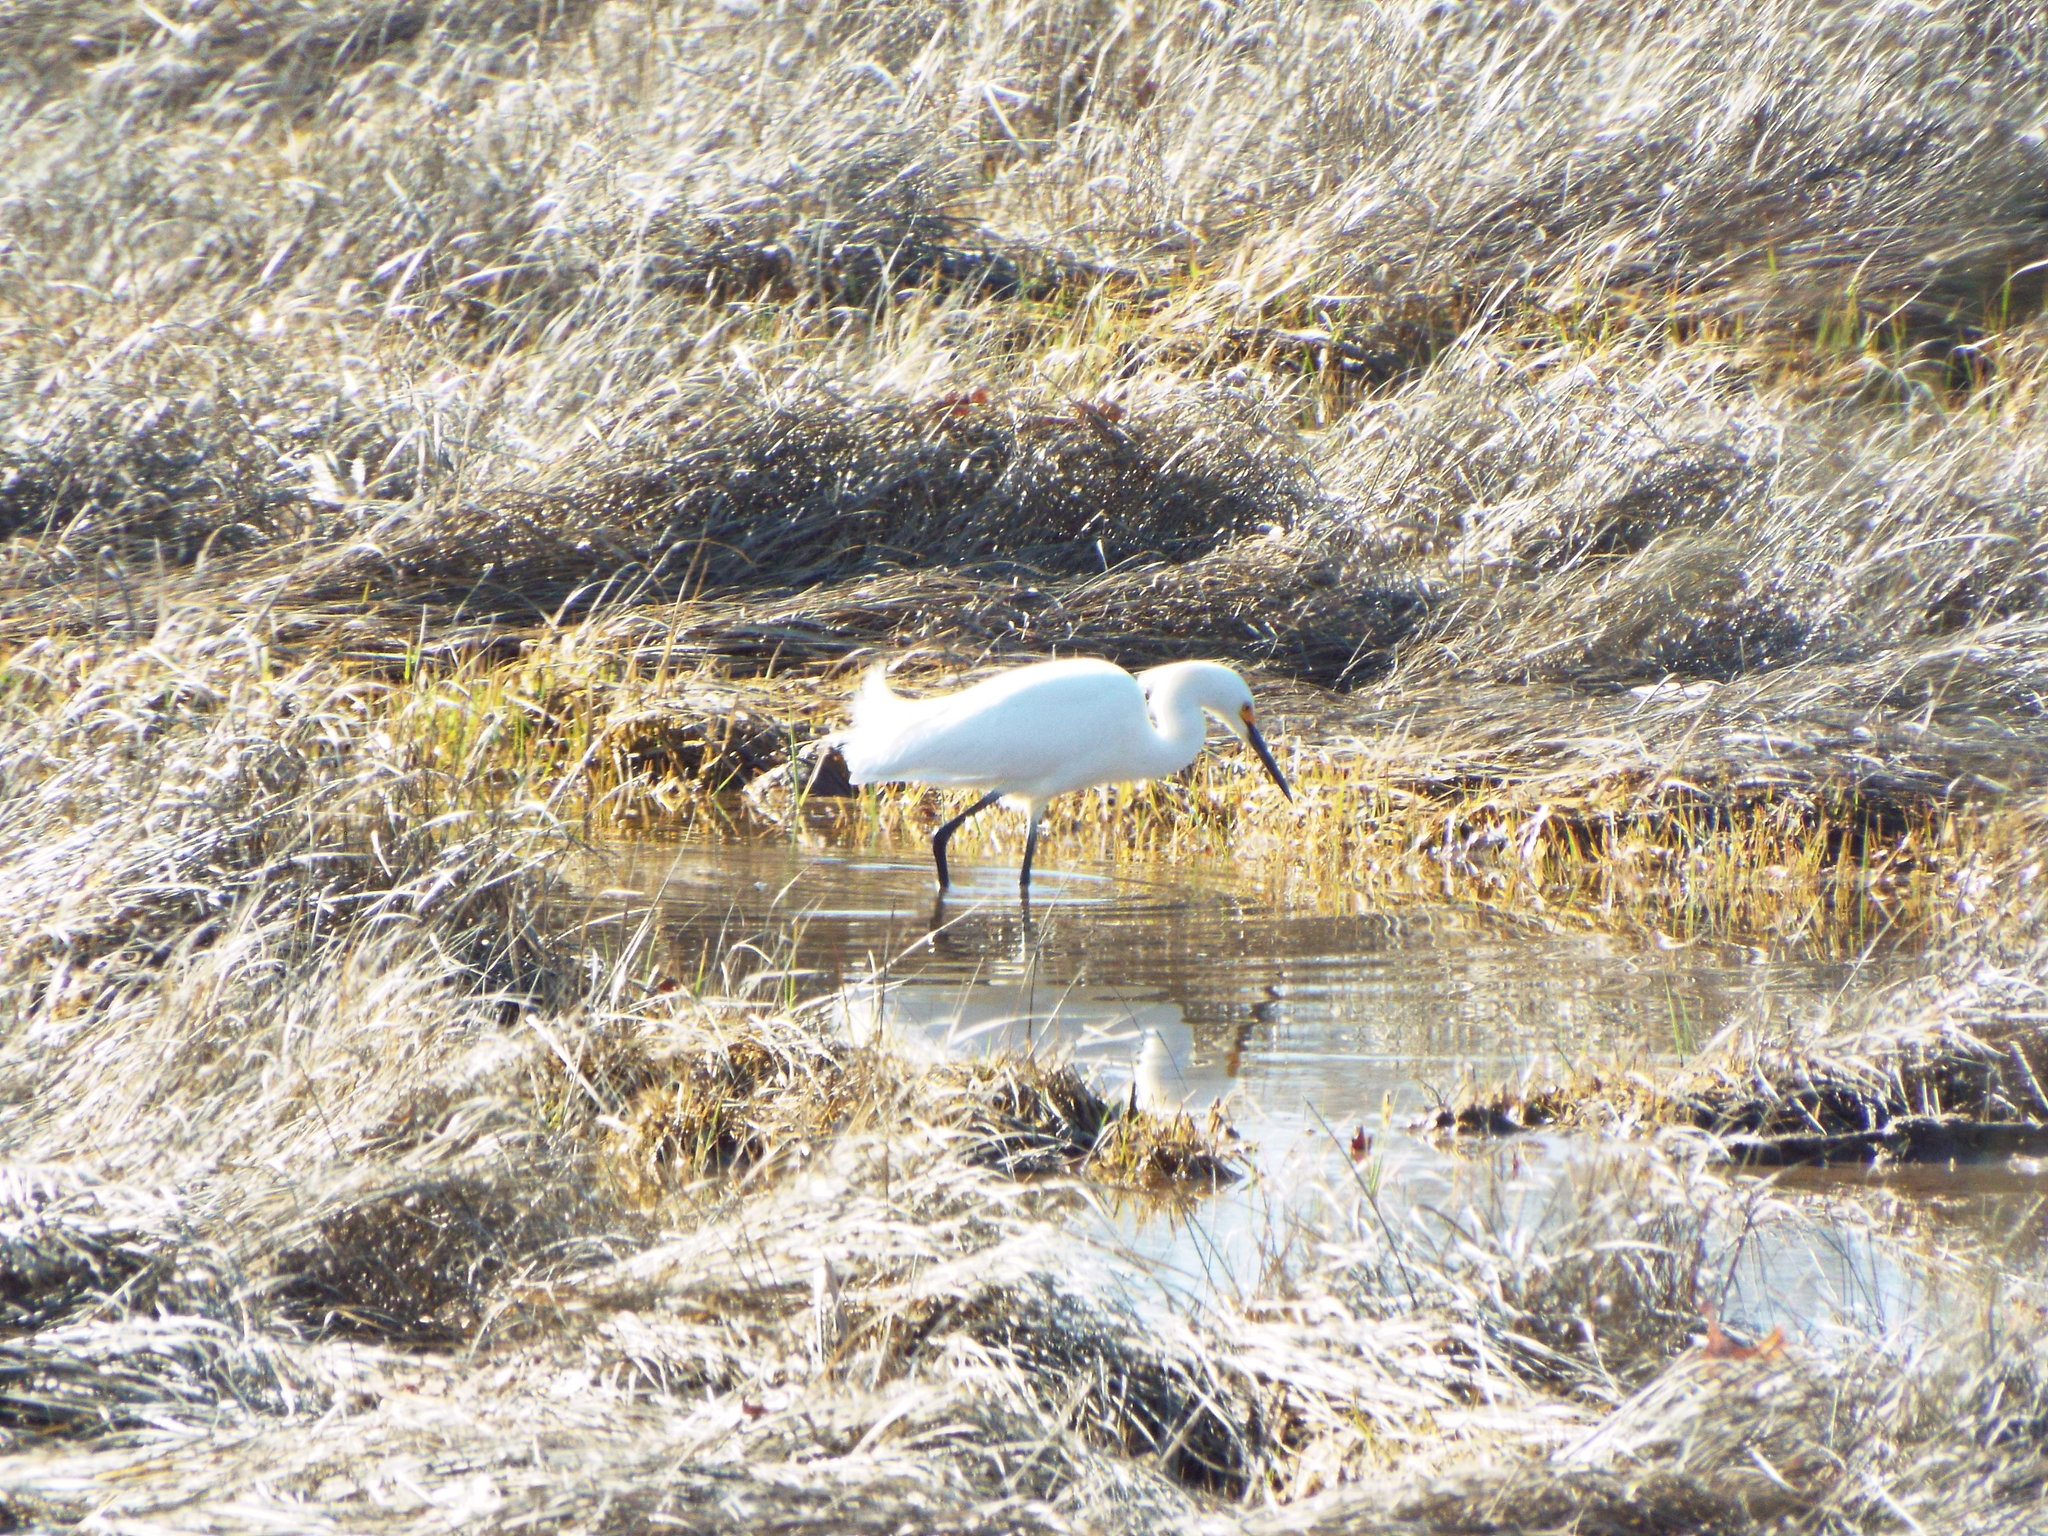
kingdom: Animalia
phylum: Chordata
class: Aves
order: Pelecaniformes
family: Ardeidae
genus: Egretta
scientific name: Egretta thula
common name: Snowy egret
